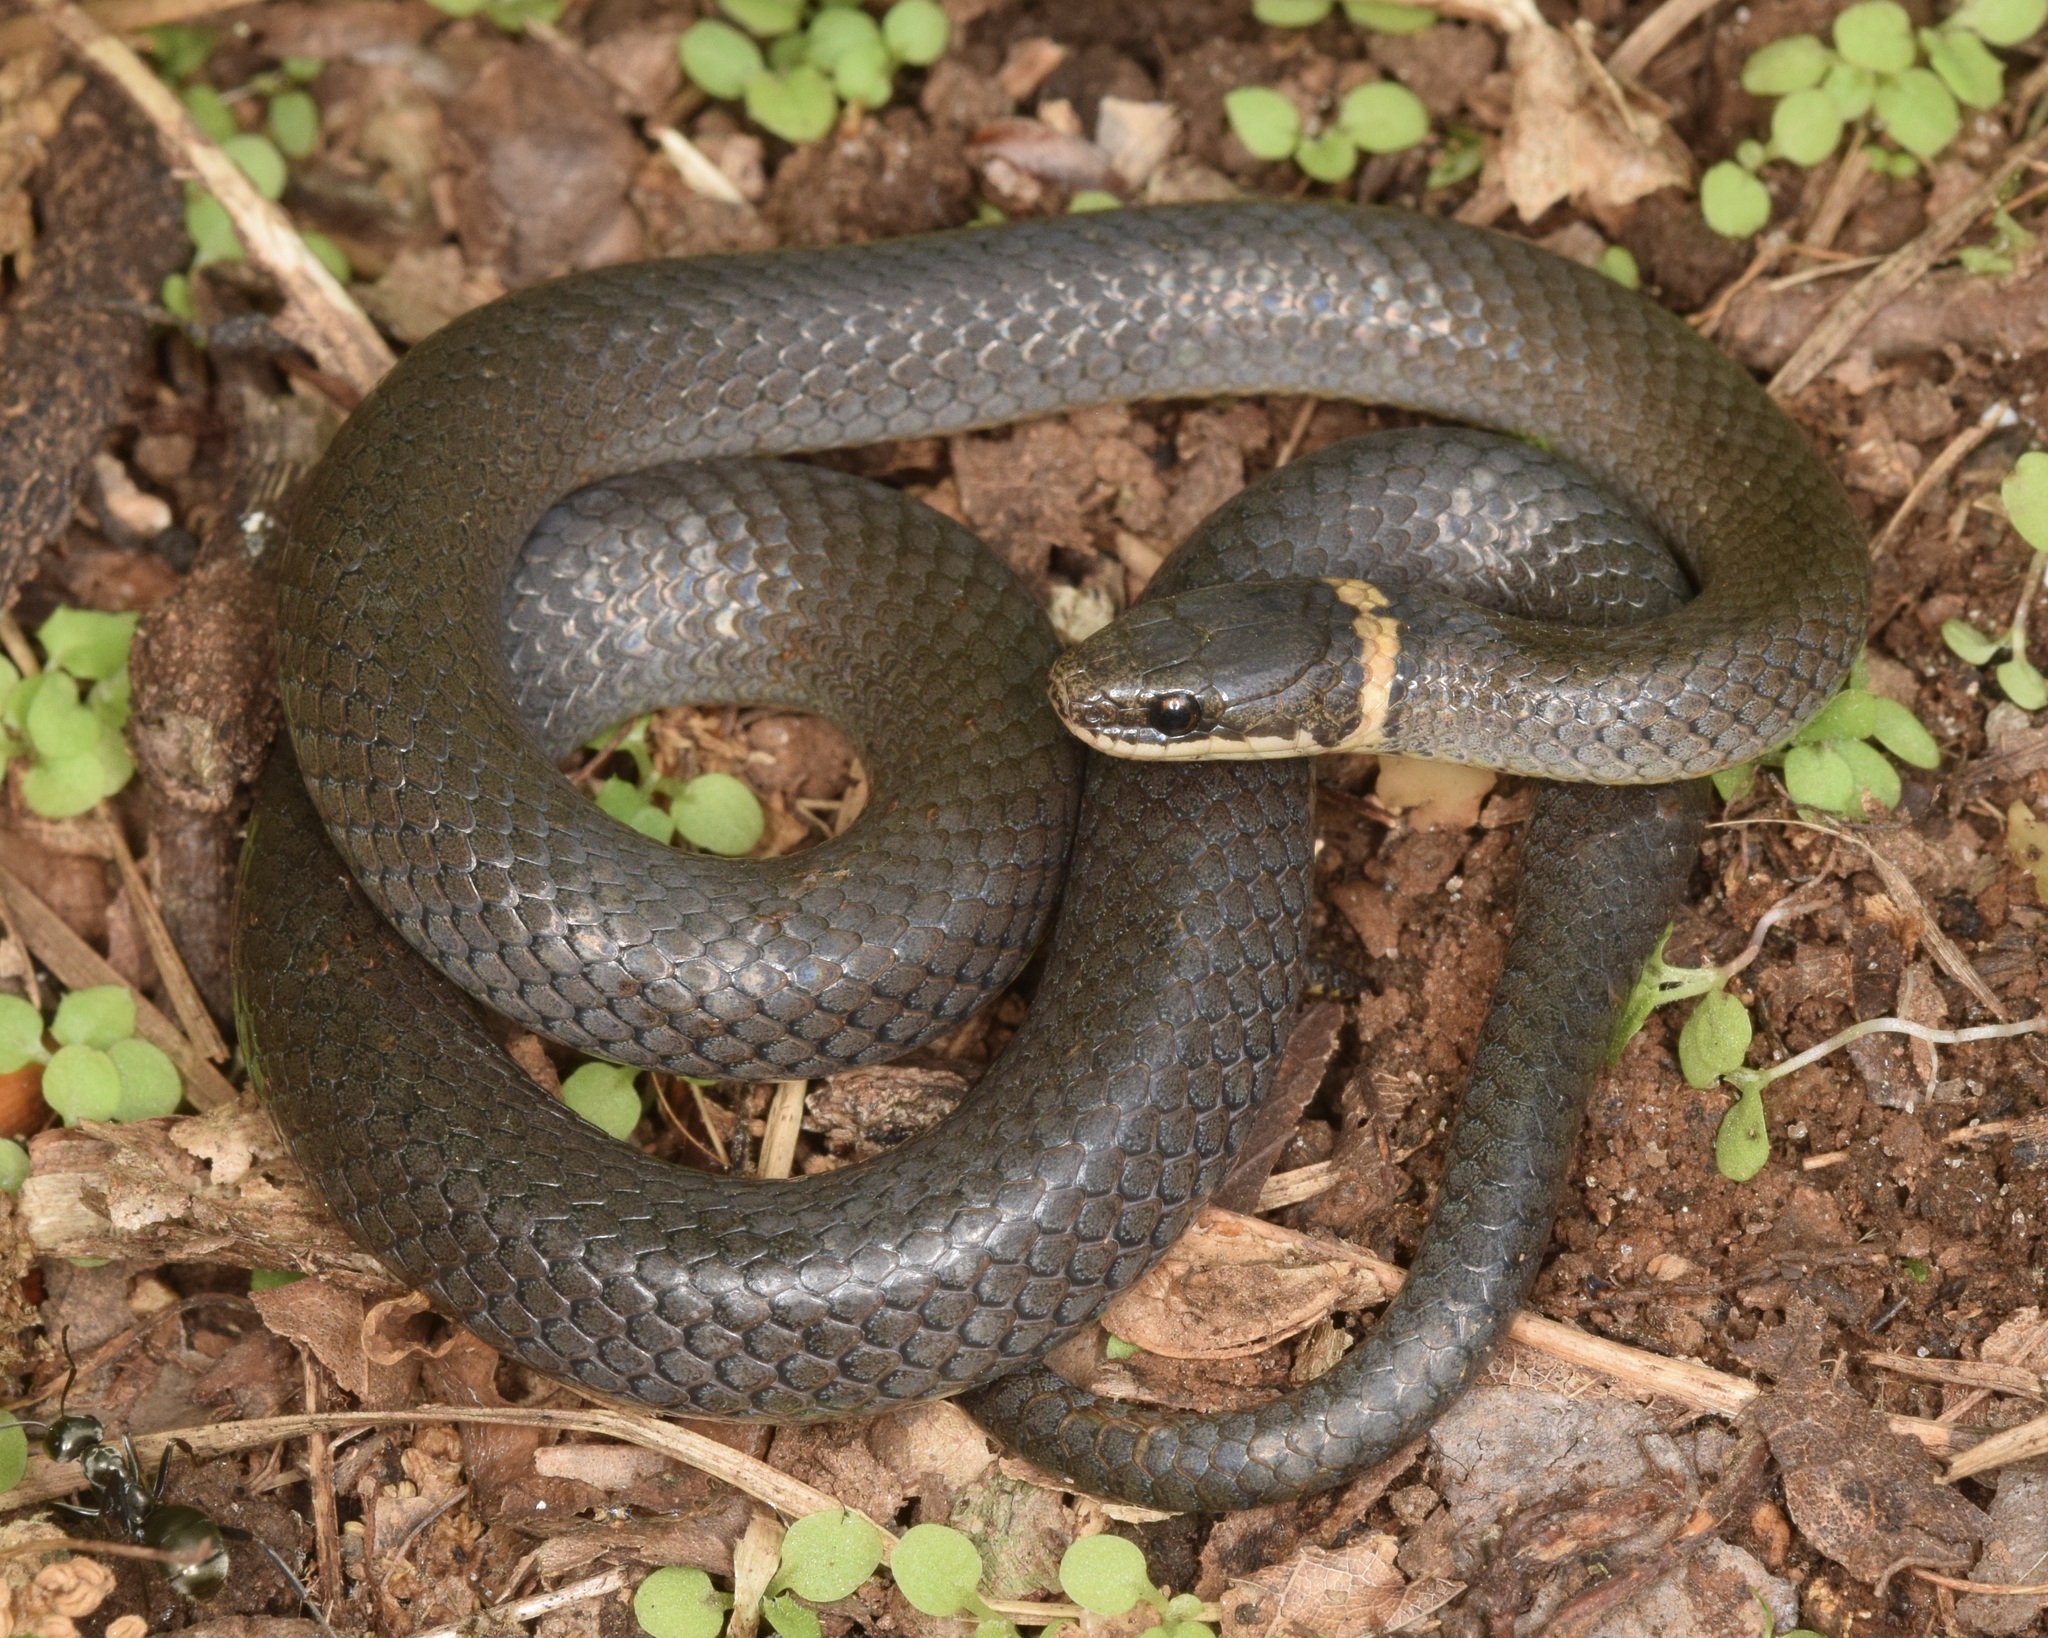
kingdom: Animalia
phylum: Chordata
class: Squamata
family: Colubridae
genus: Diadophis
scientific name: Diadophis punctatus
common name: Ringneck snake
